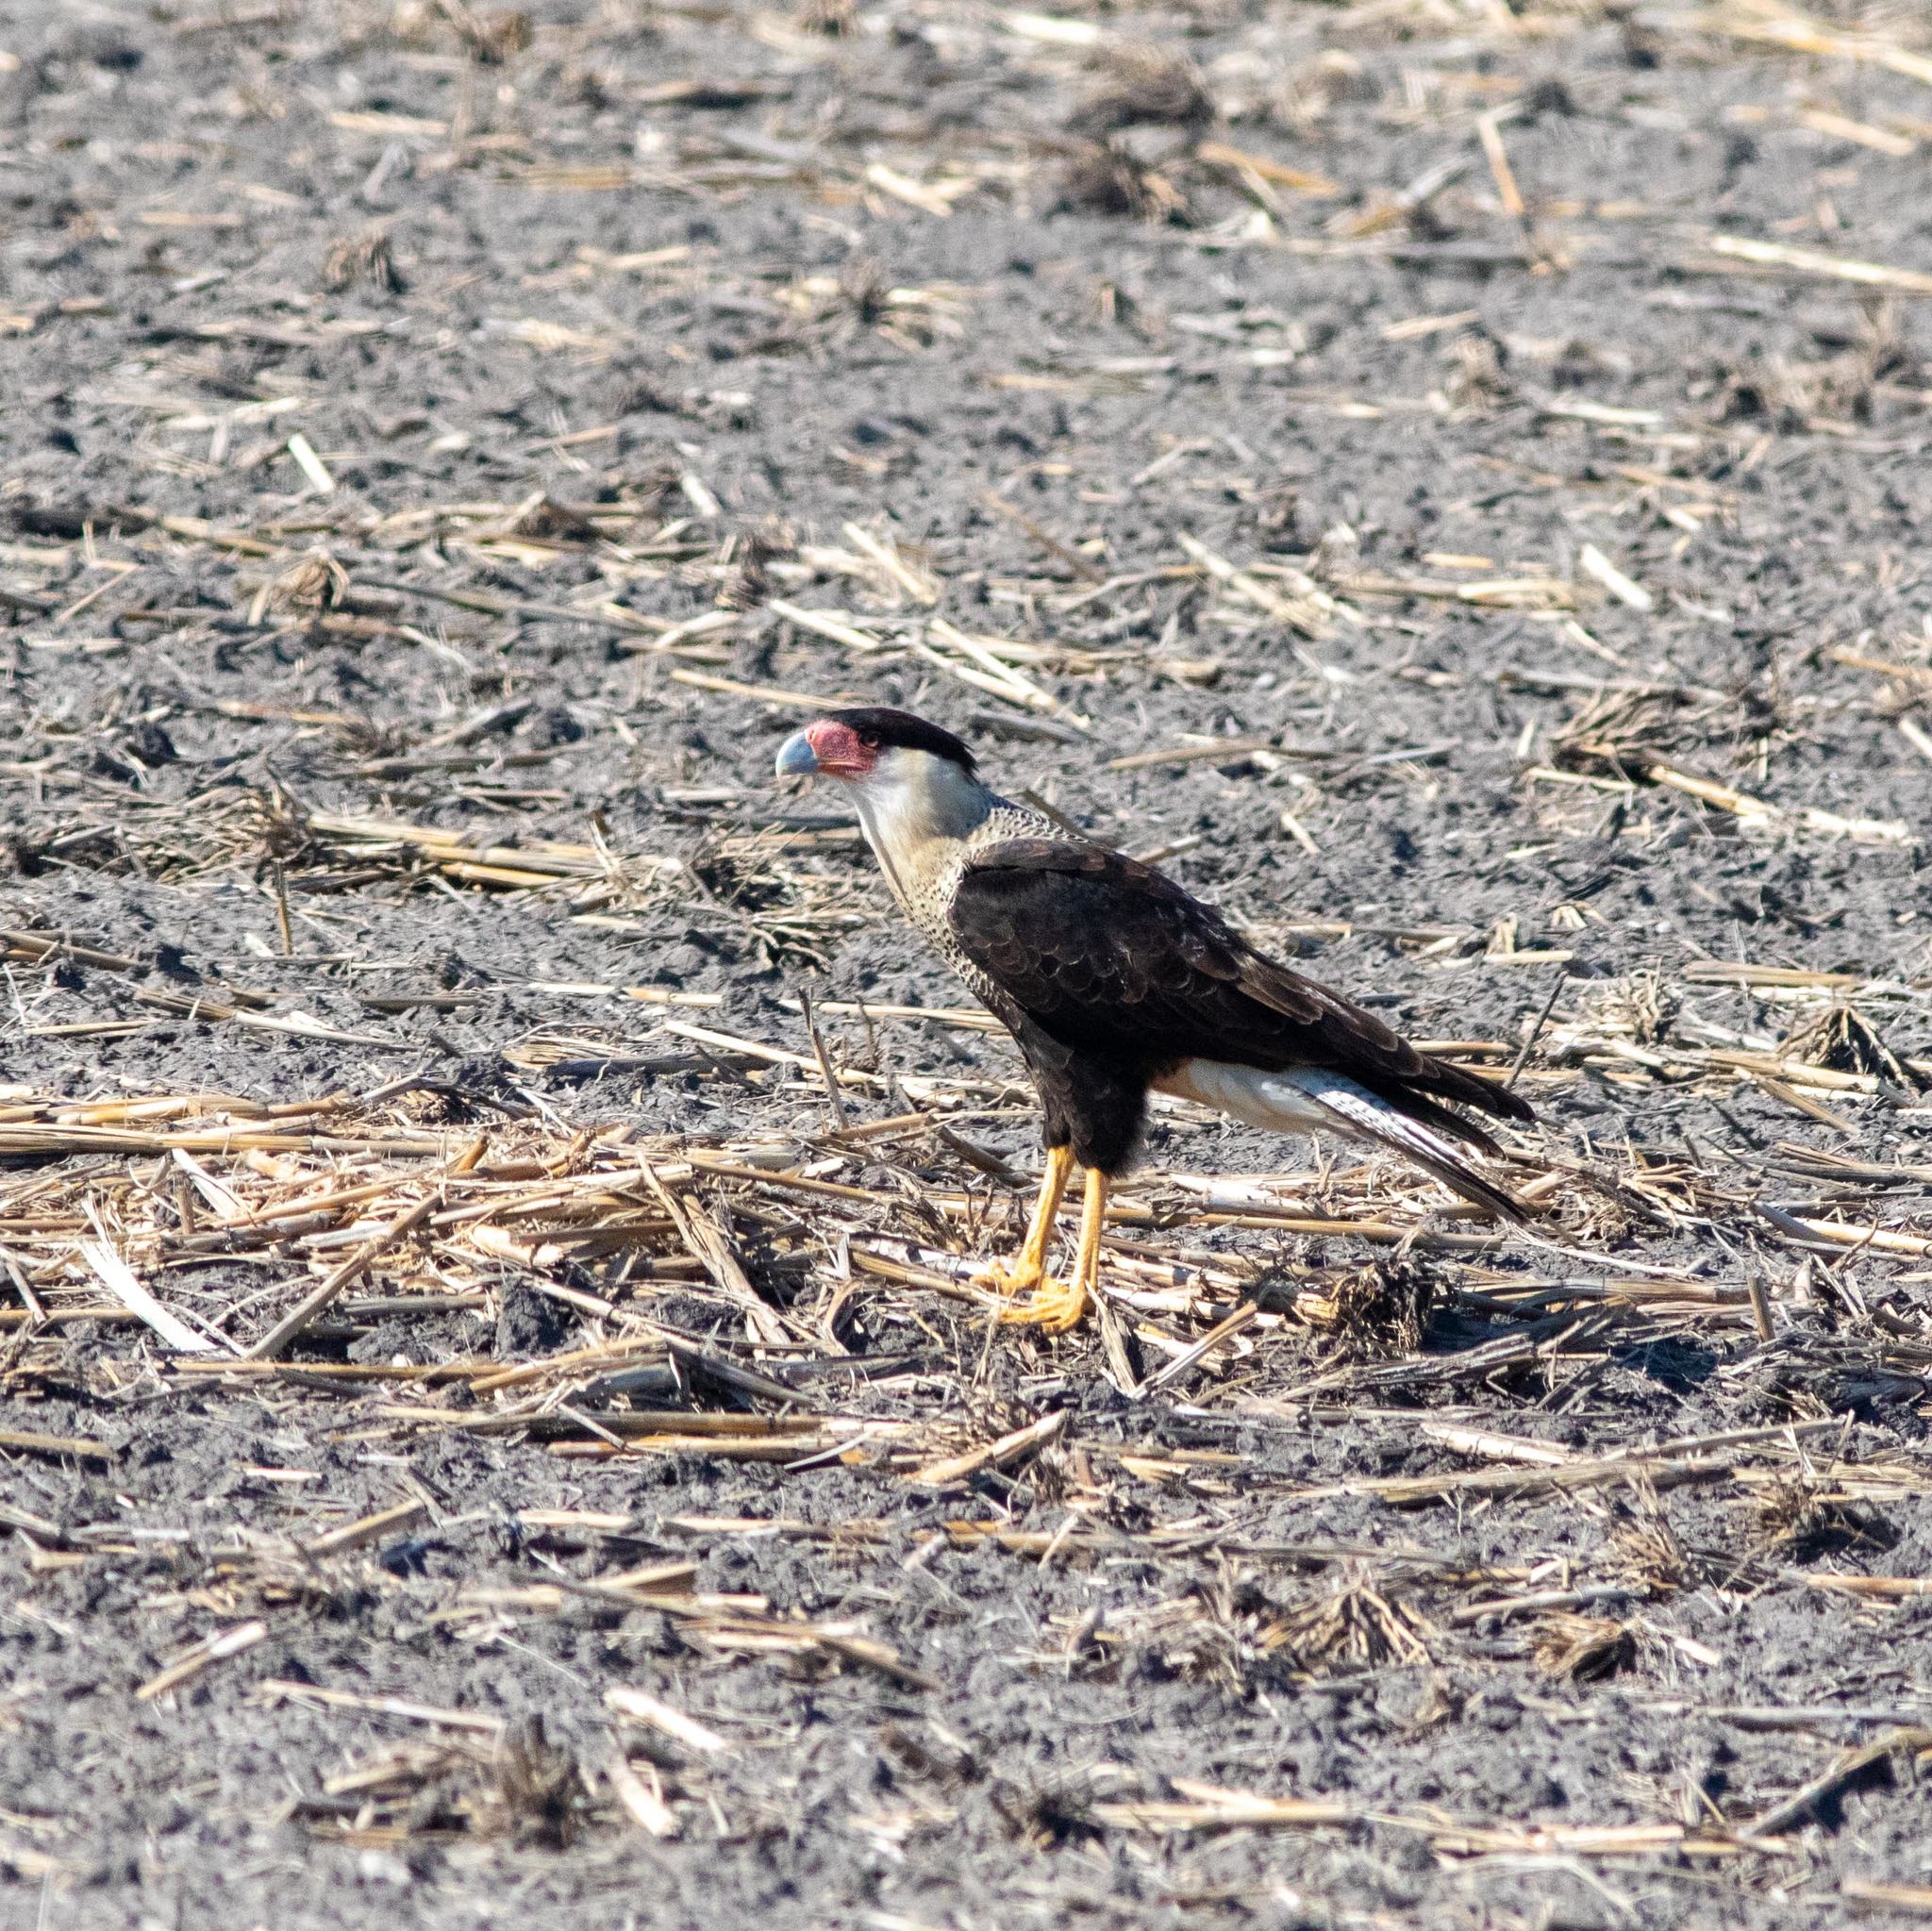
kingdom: Animalia
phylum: Chordata
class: Aves
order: Falconiformes
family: Falconidae
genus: Caracara
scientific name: Caracara plancus
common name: Southern caracara
